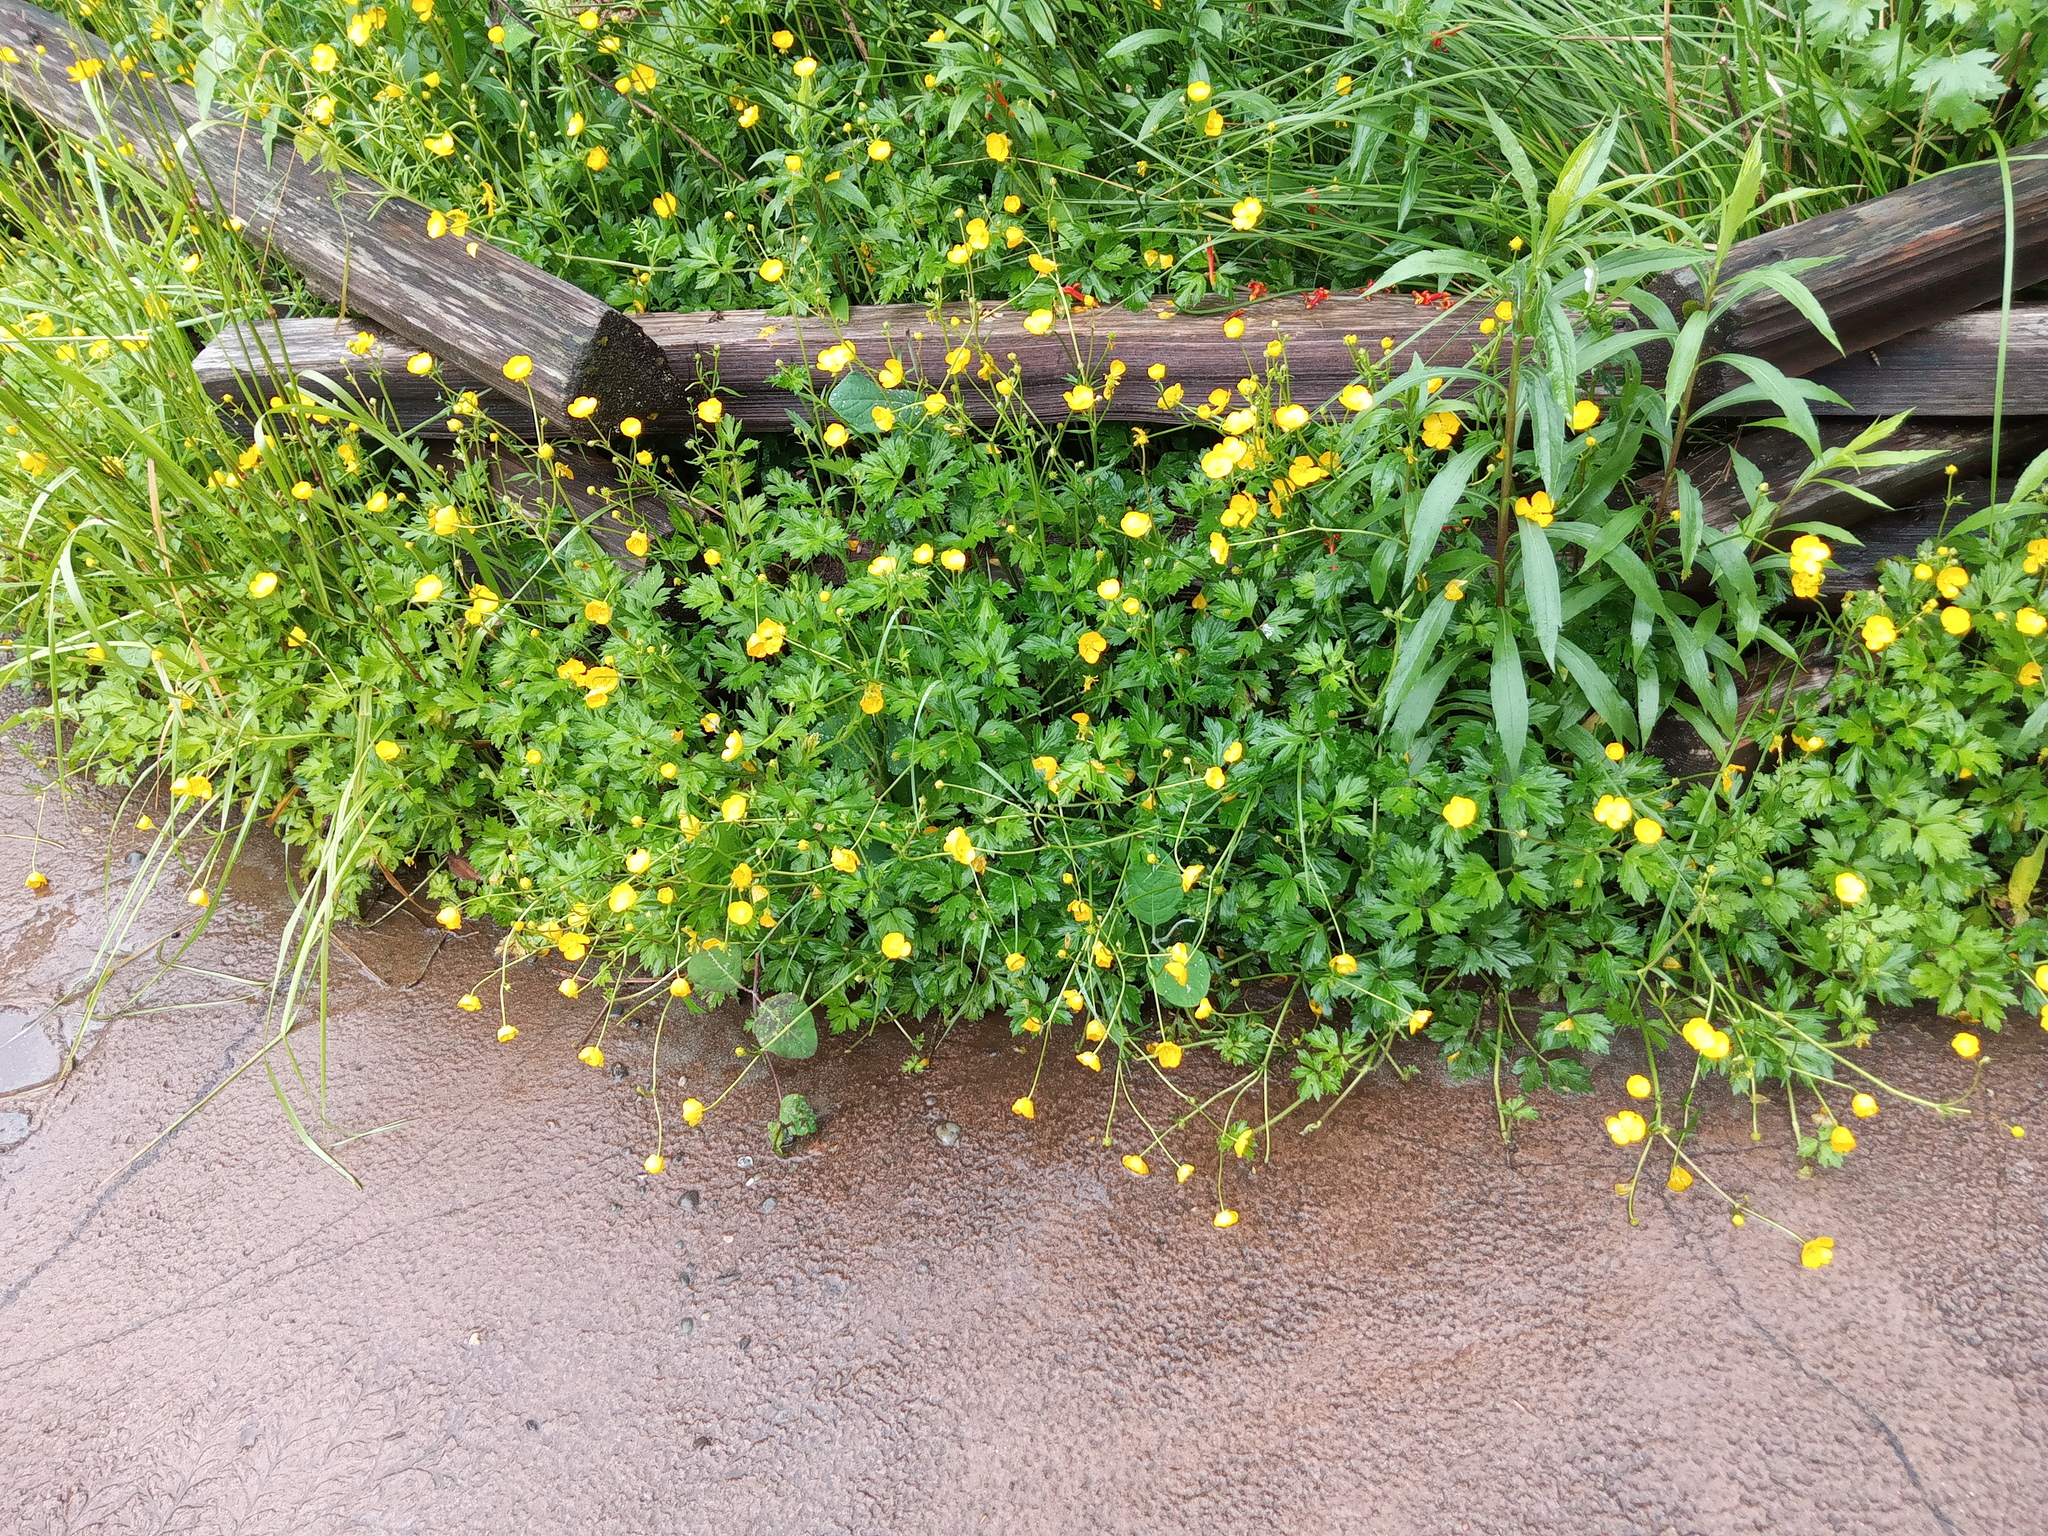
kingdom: Plantae
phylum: Tracheophyta
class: Magnoliopsida
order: Ranunculales
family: Ranunculaceae
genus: Ranunculus
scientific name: Ranunculus repens
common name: Creeping buttercup
